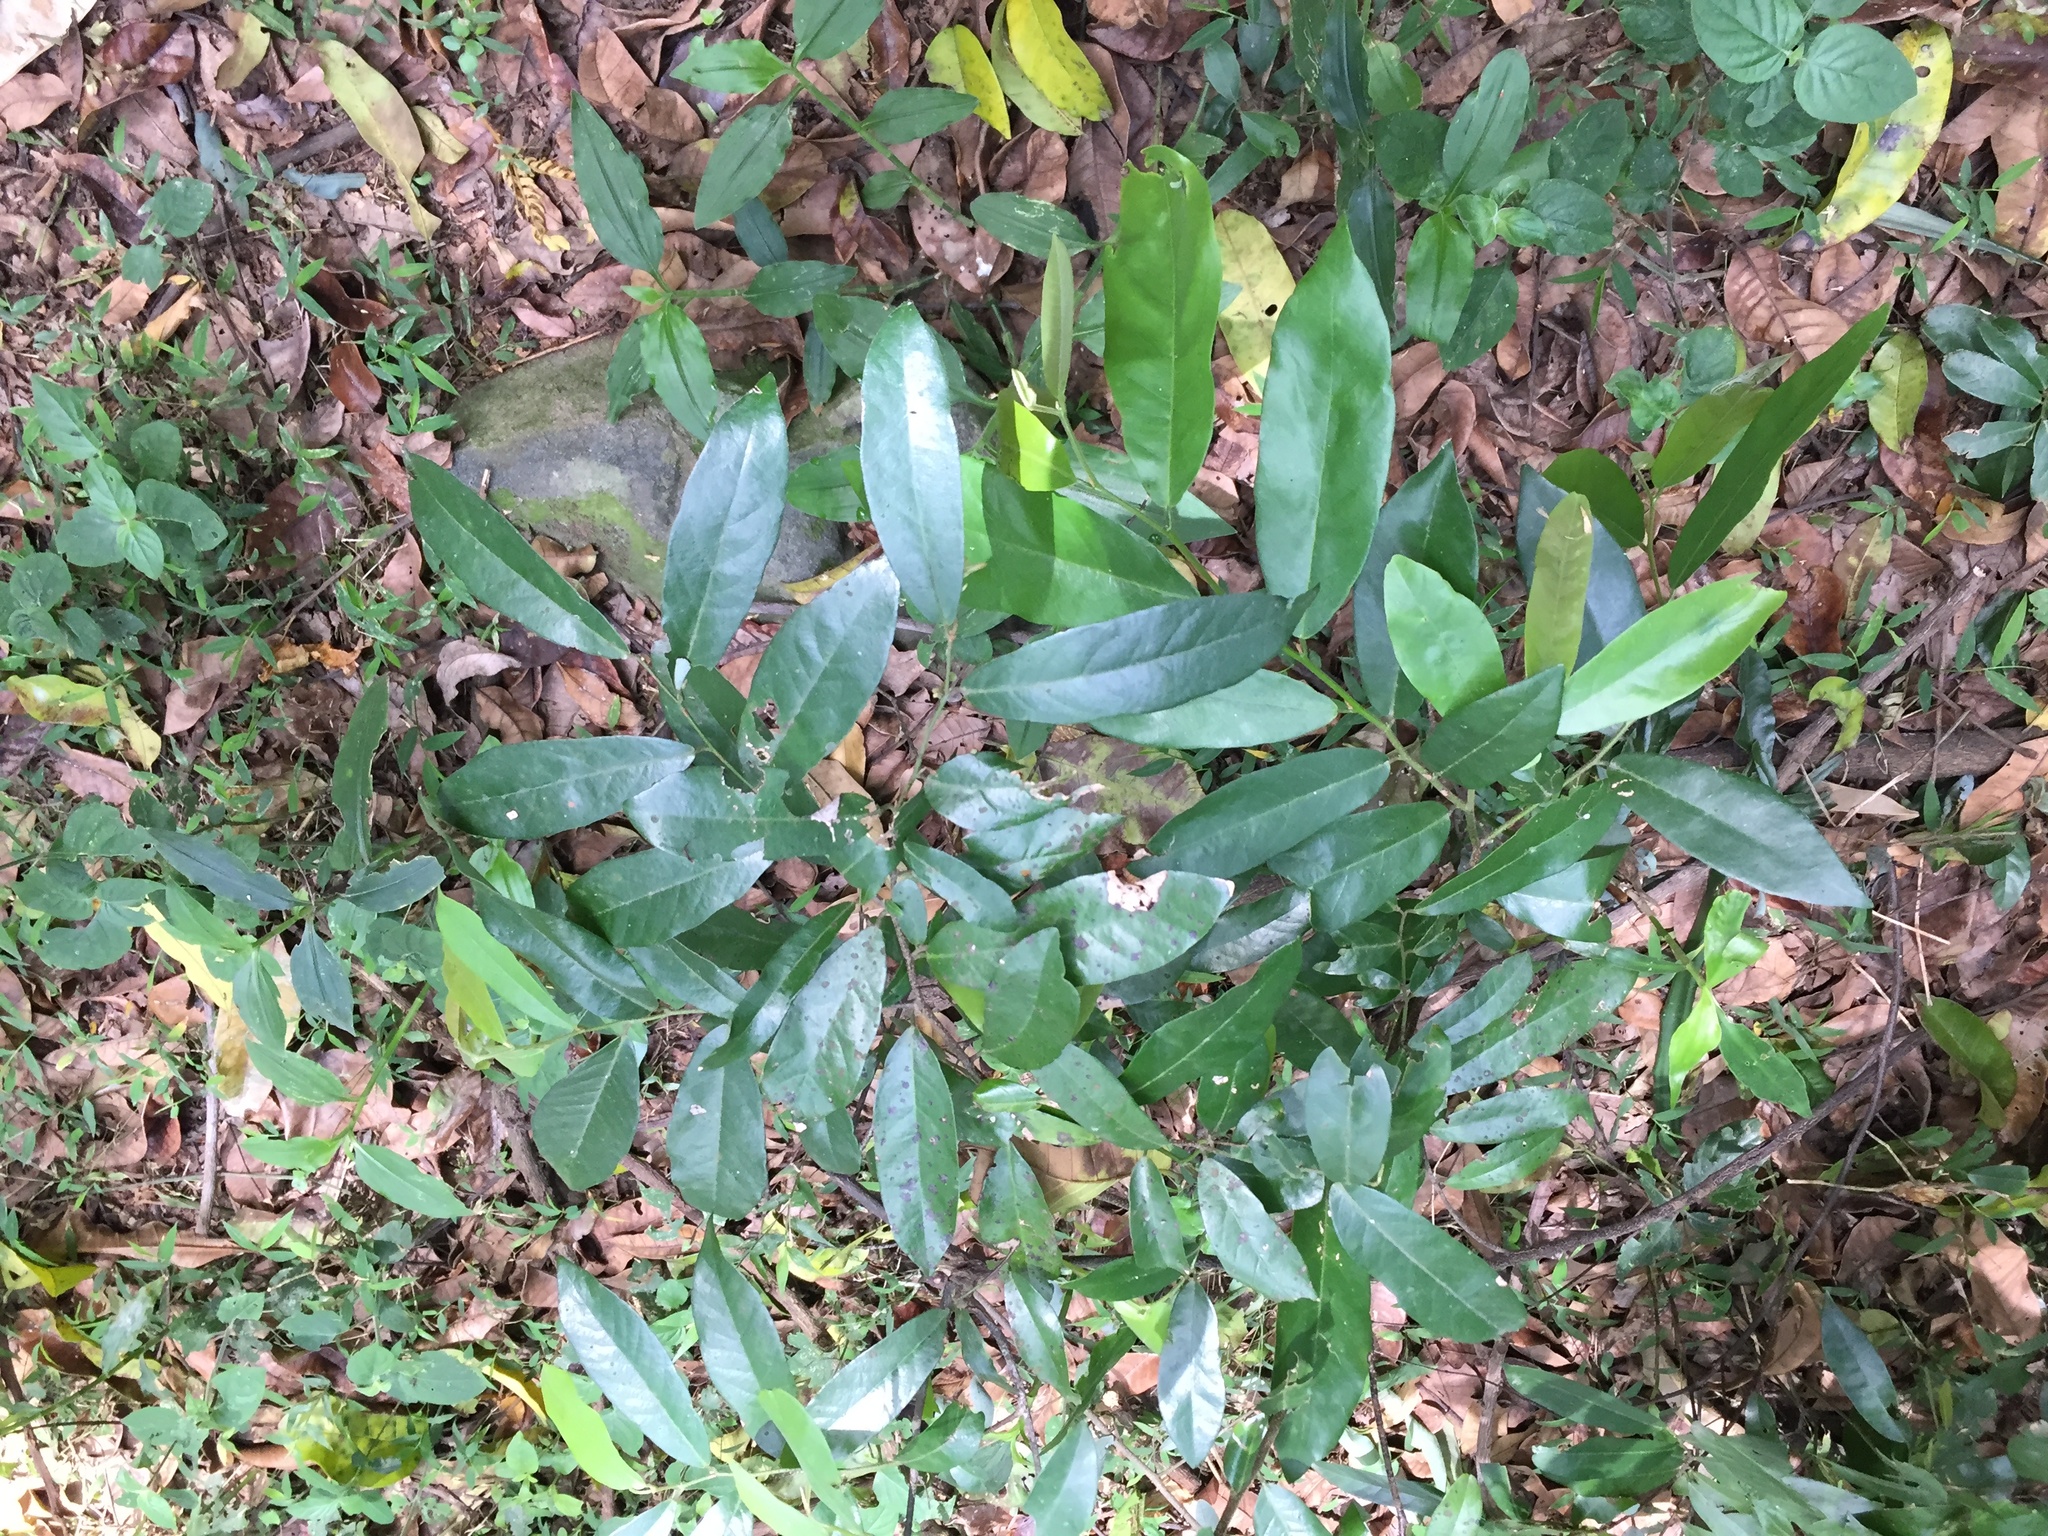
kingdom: Plantae
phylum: Tracheophyta
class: Magnoliopsida
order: Magnoliales
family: Annonaceae
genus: Monanthotaxis
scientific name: Monanthotaxis caffra
